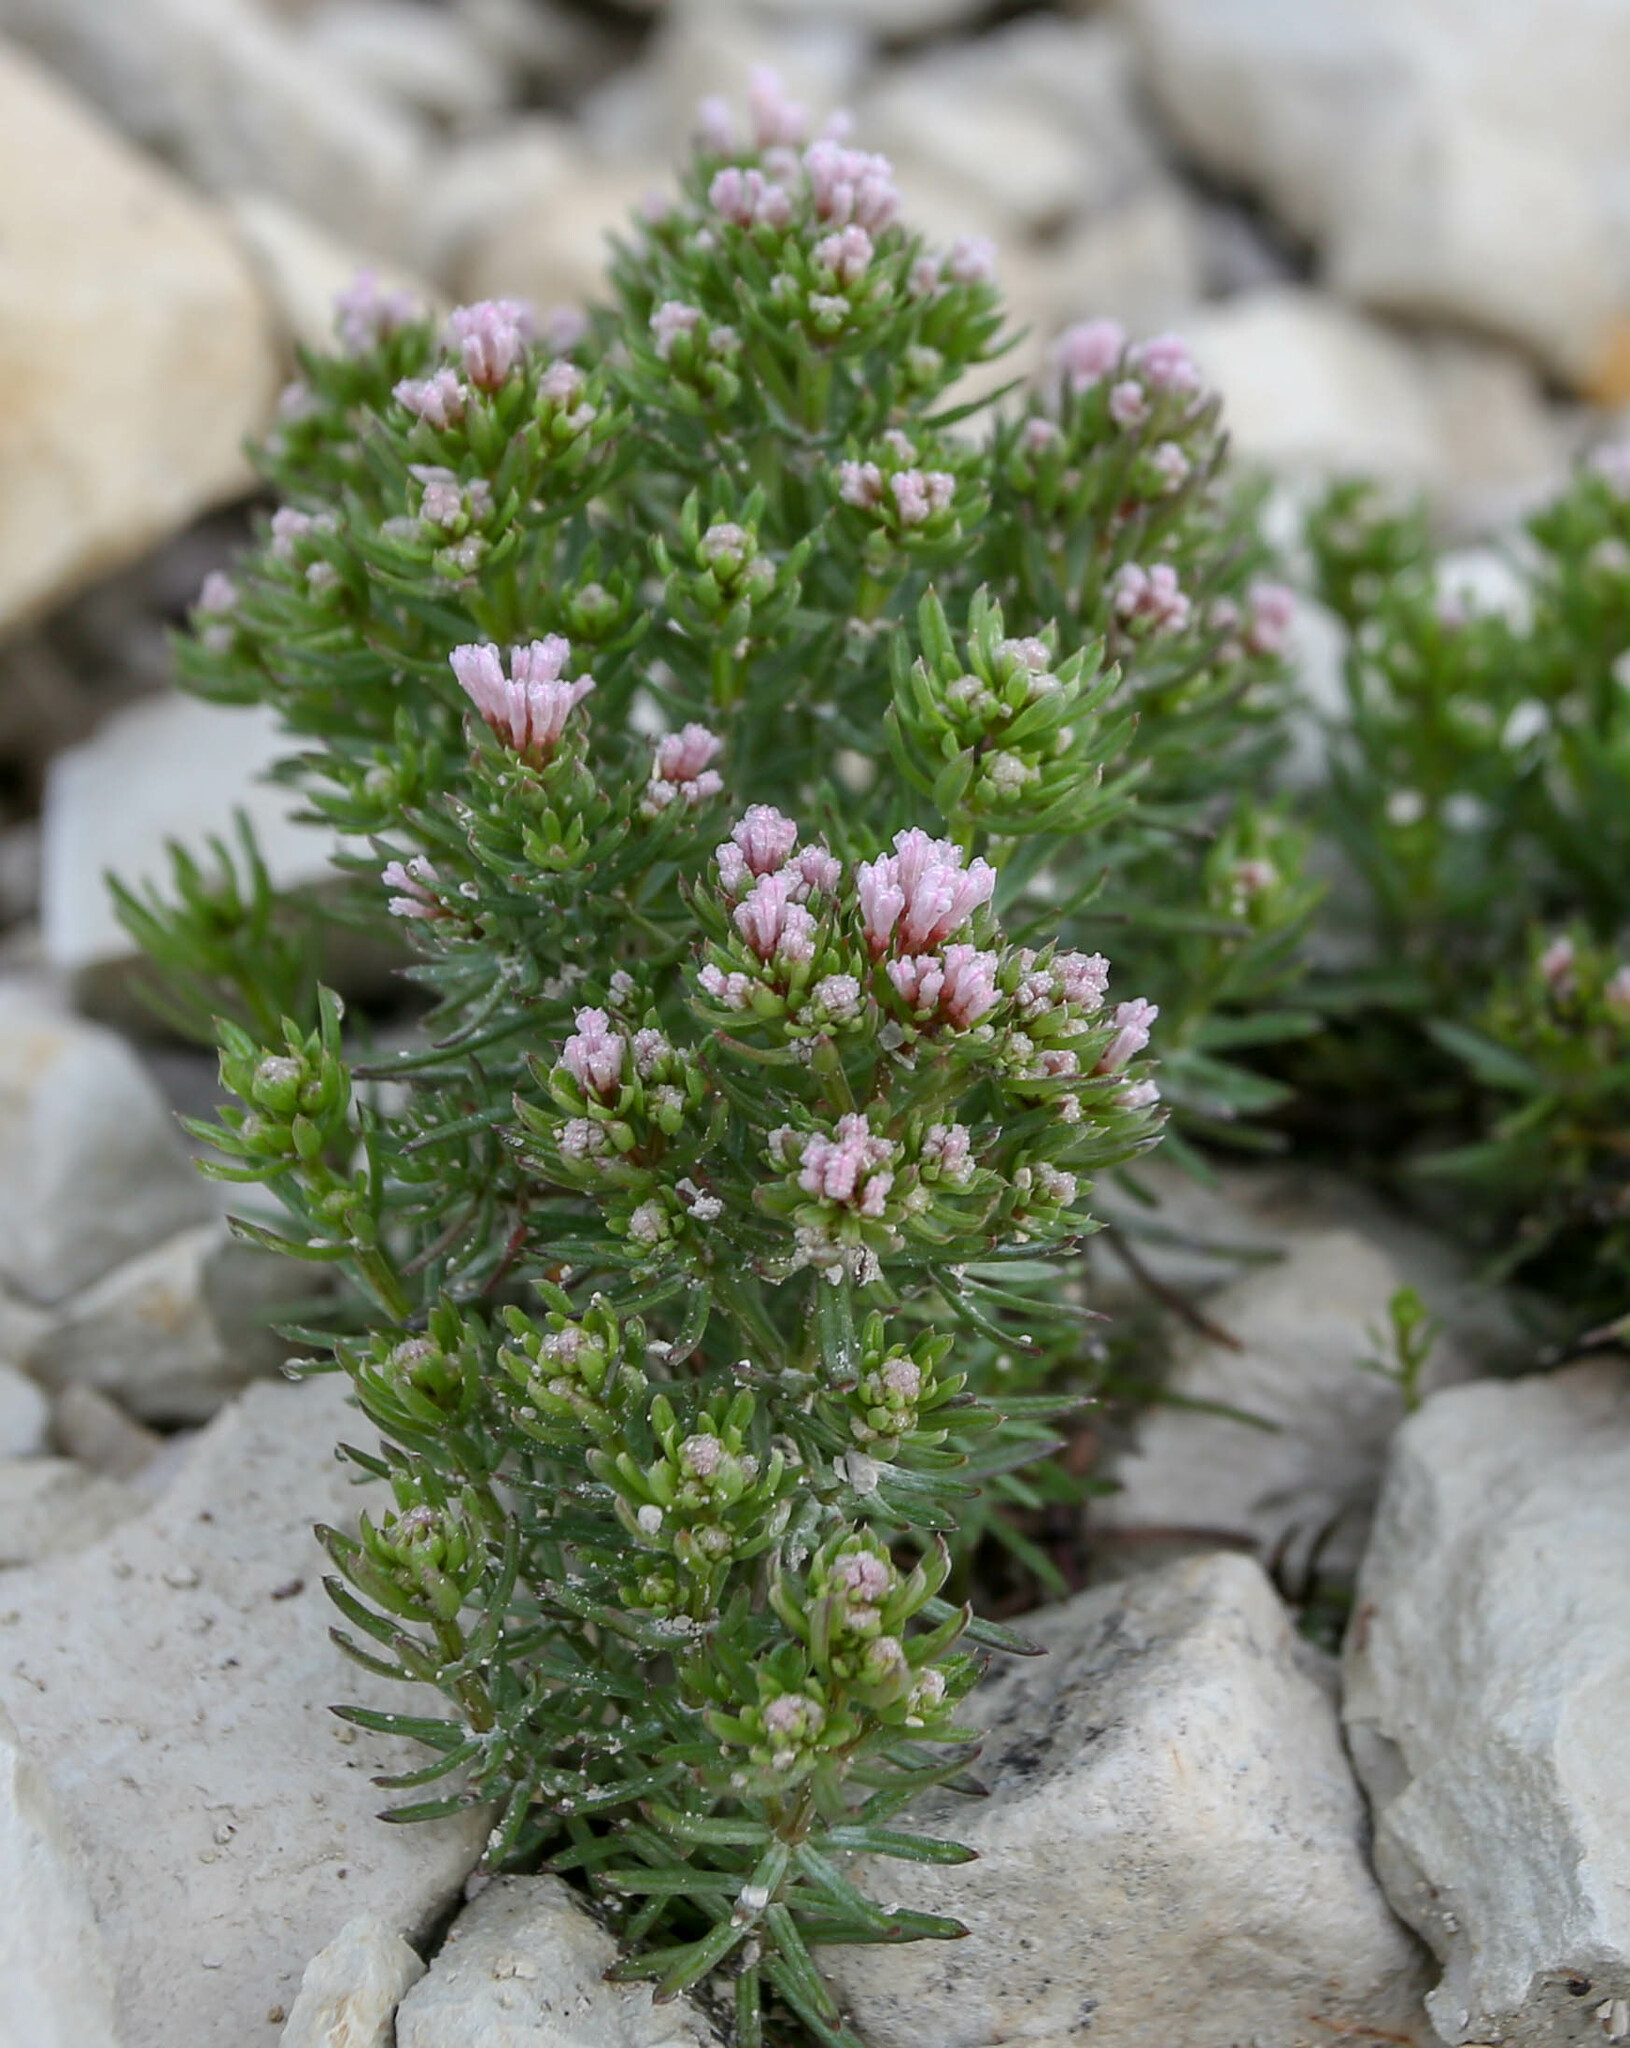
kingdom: Plantae
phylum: Tracheophyta
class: Magnoliopsida
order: Gentianales
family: Rubiaceae
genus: Hexaphylla
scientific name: Hexaphylla cretacea
